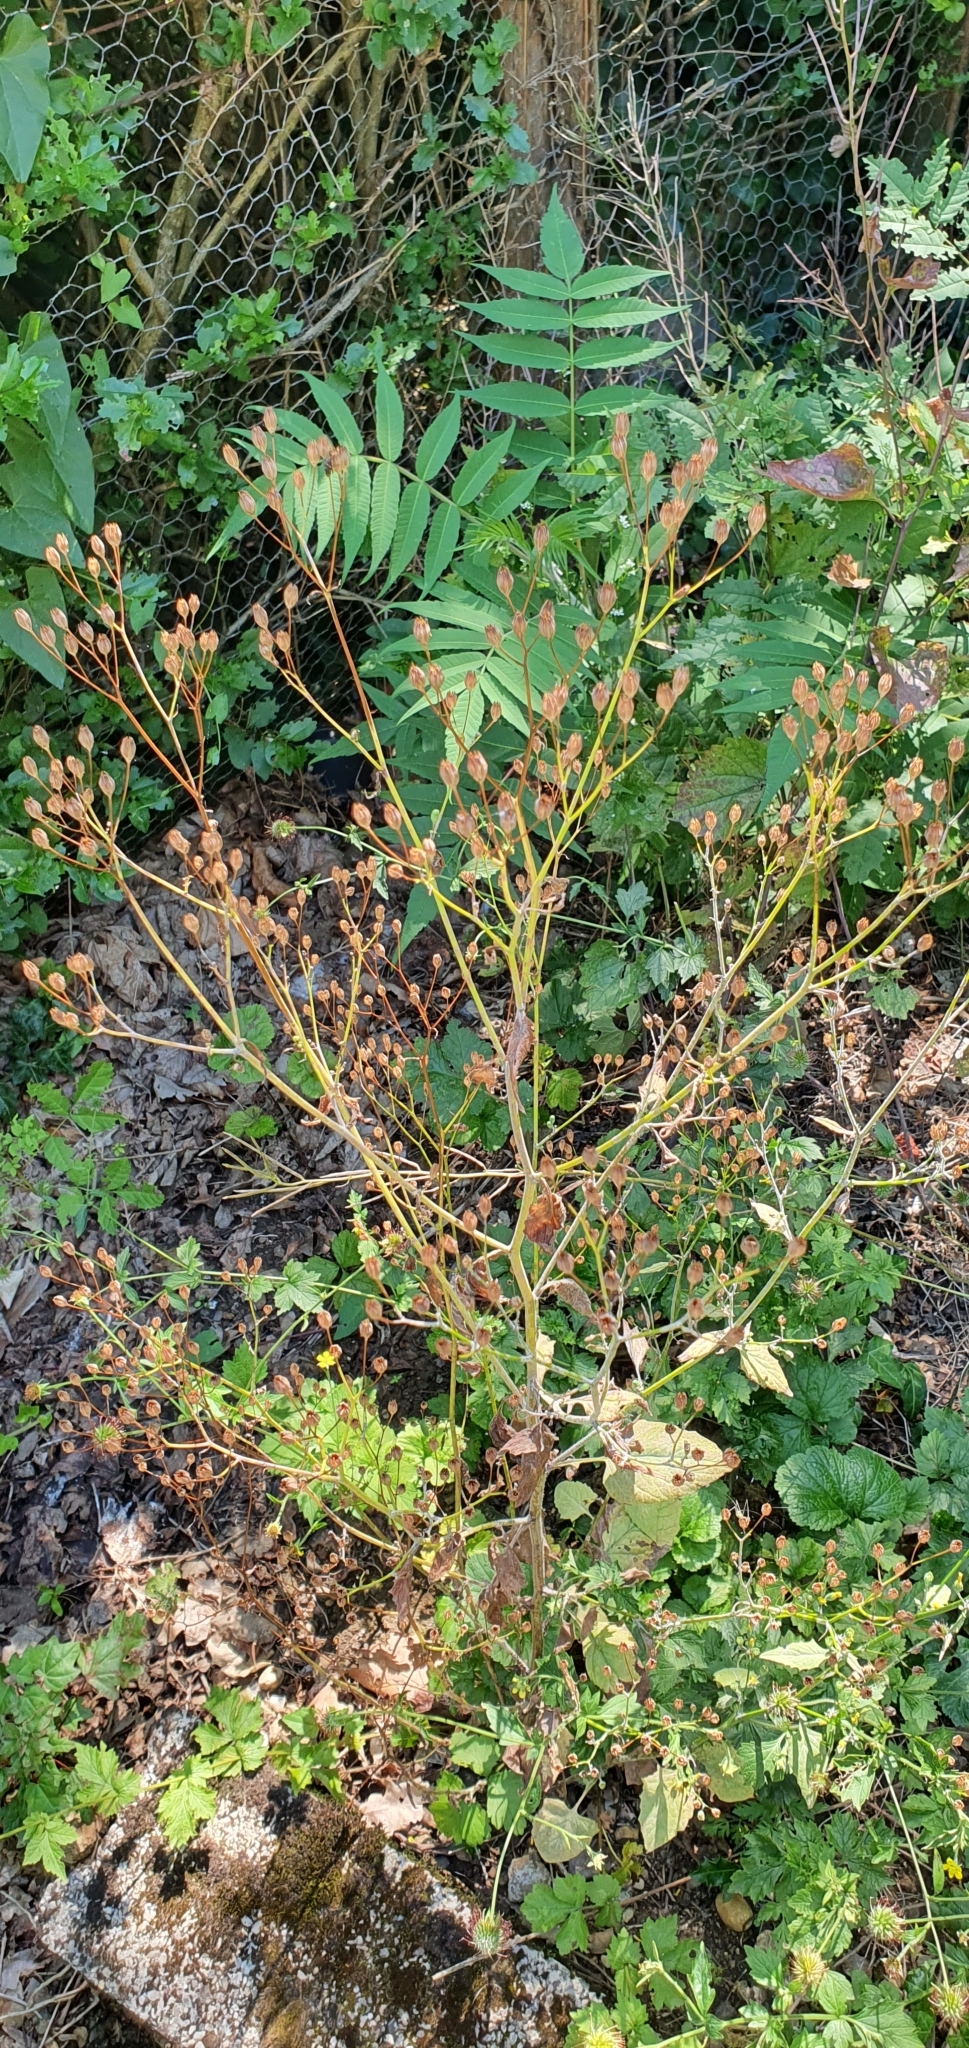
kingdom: Plantae
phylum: Tracheophyta
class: Magnoliopsida
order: Asterales
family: Asteraceae
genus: Lapsana
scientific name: Lapsana communis
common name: Nipplewort
